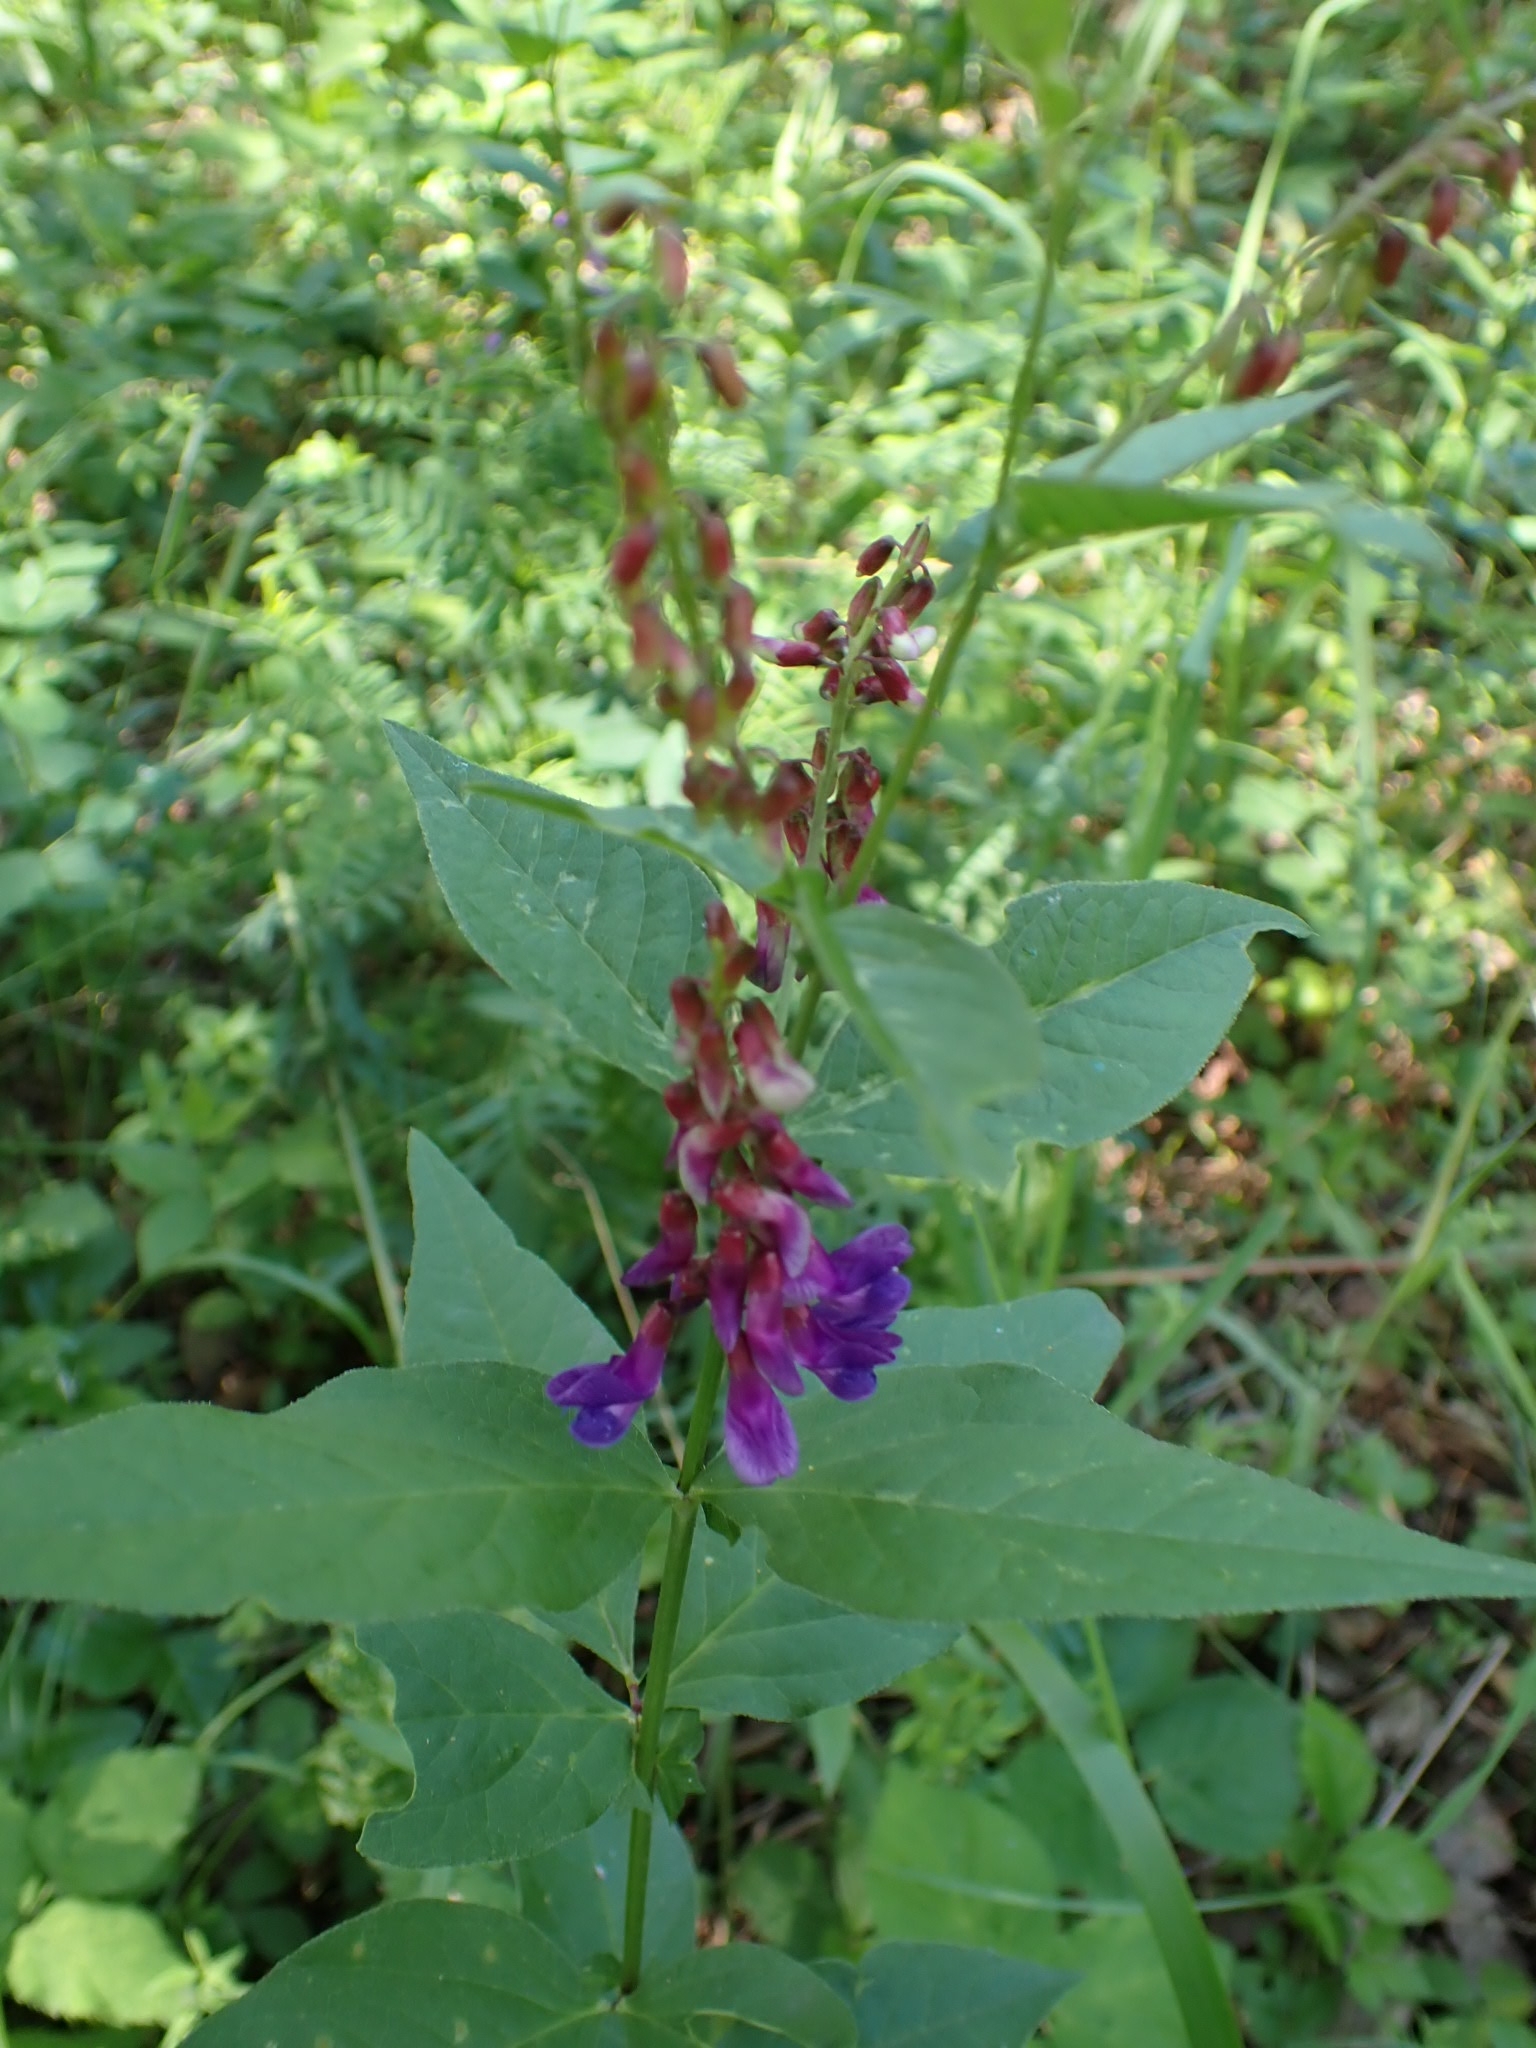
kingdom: Plantae
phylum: Tracheophyta
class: Magnoliopsida
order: Fabales
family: Fabaceae
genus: Vicia
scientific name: Vicia unijuga
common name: Two-leaf vetch
